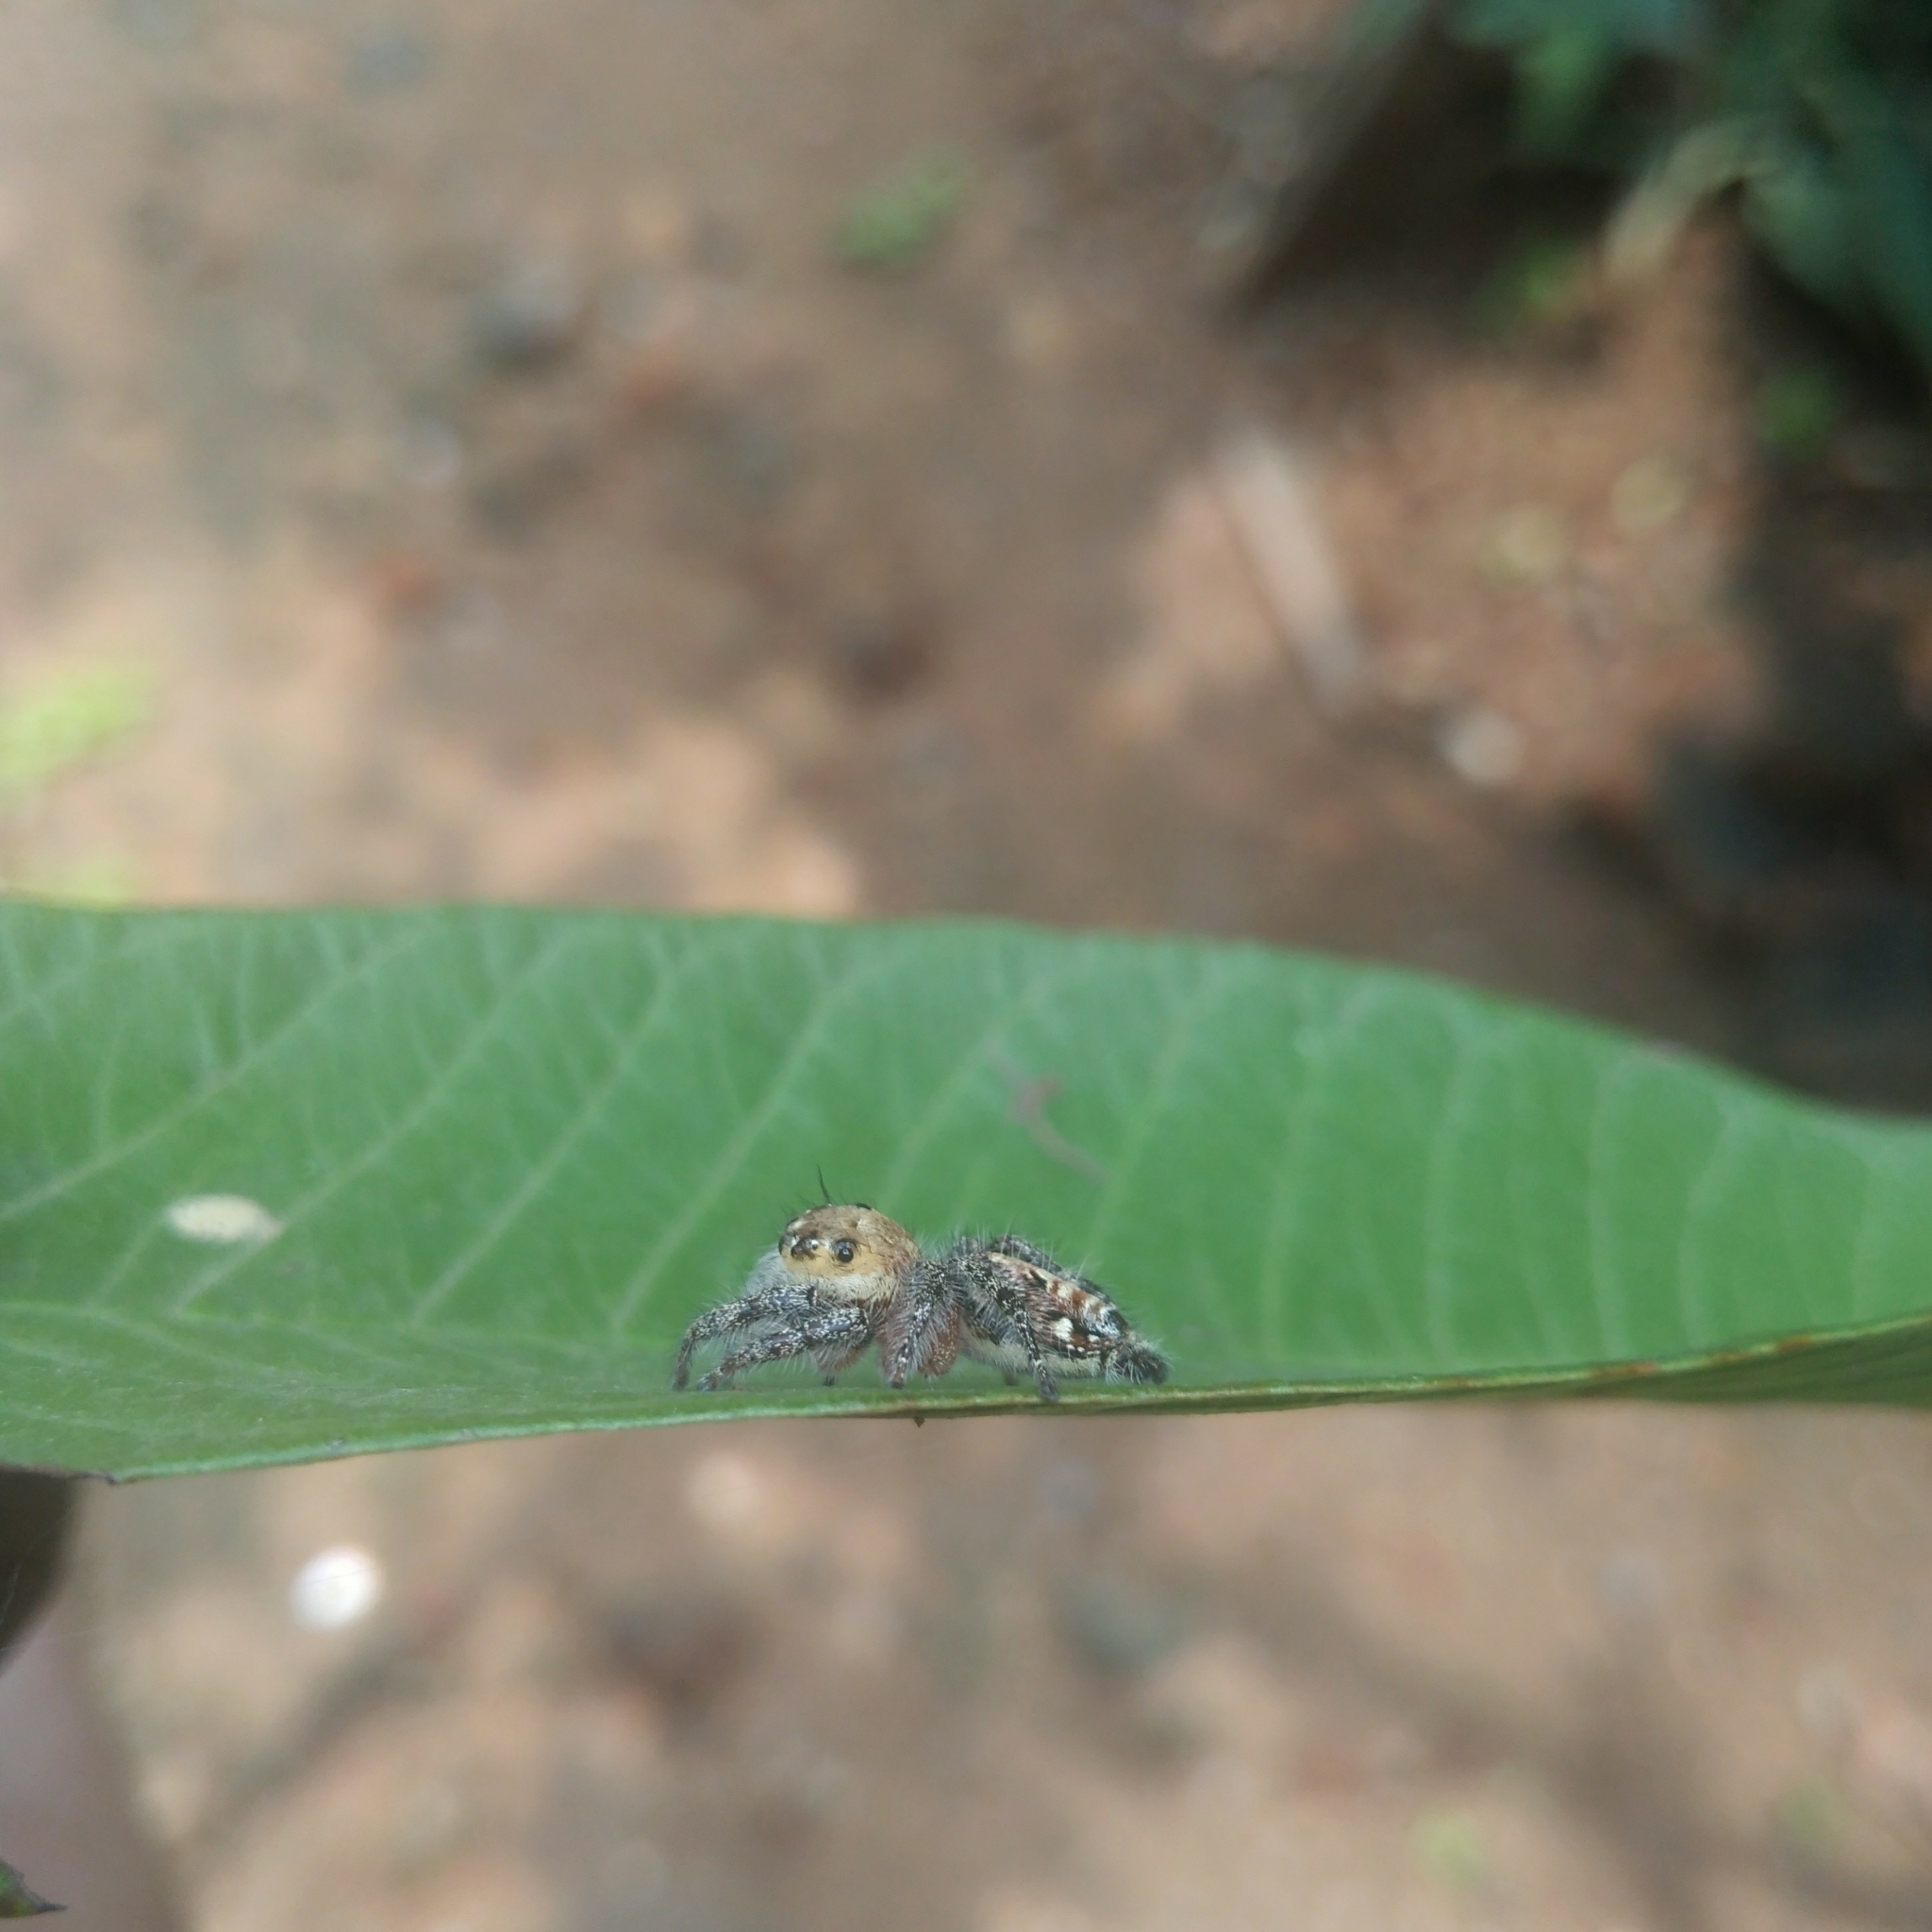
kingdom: Animalia
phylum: Arthropoda
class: Arachnida
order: Araneae
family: Salticidae
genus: Hyllus
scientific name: Hyllus semicupreus
